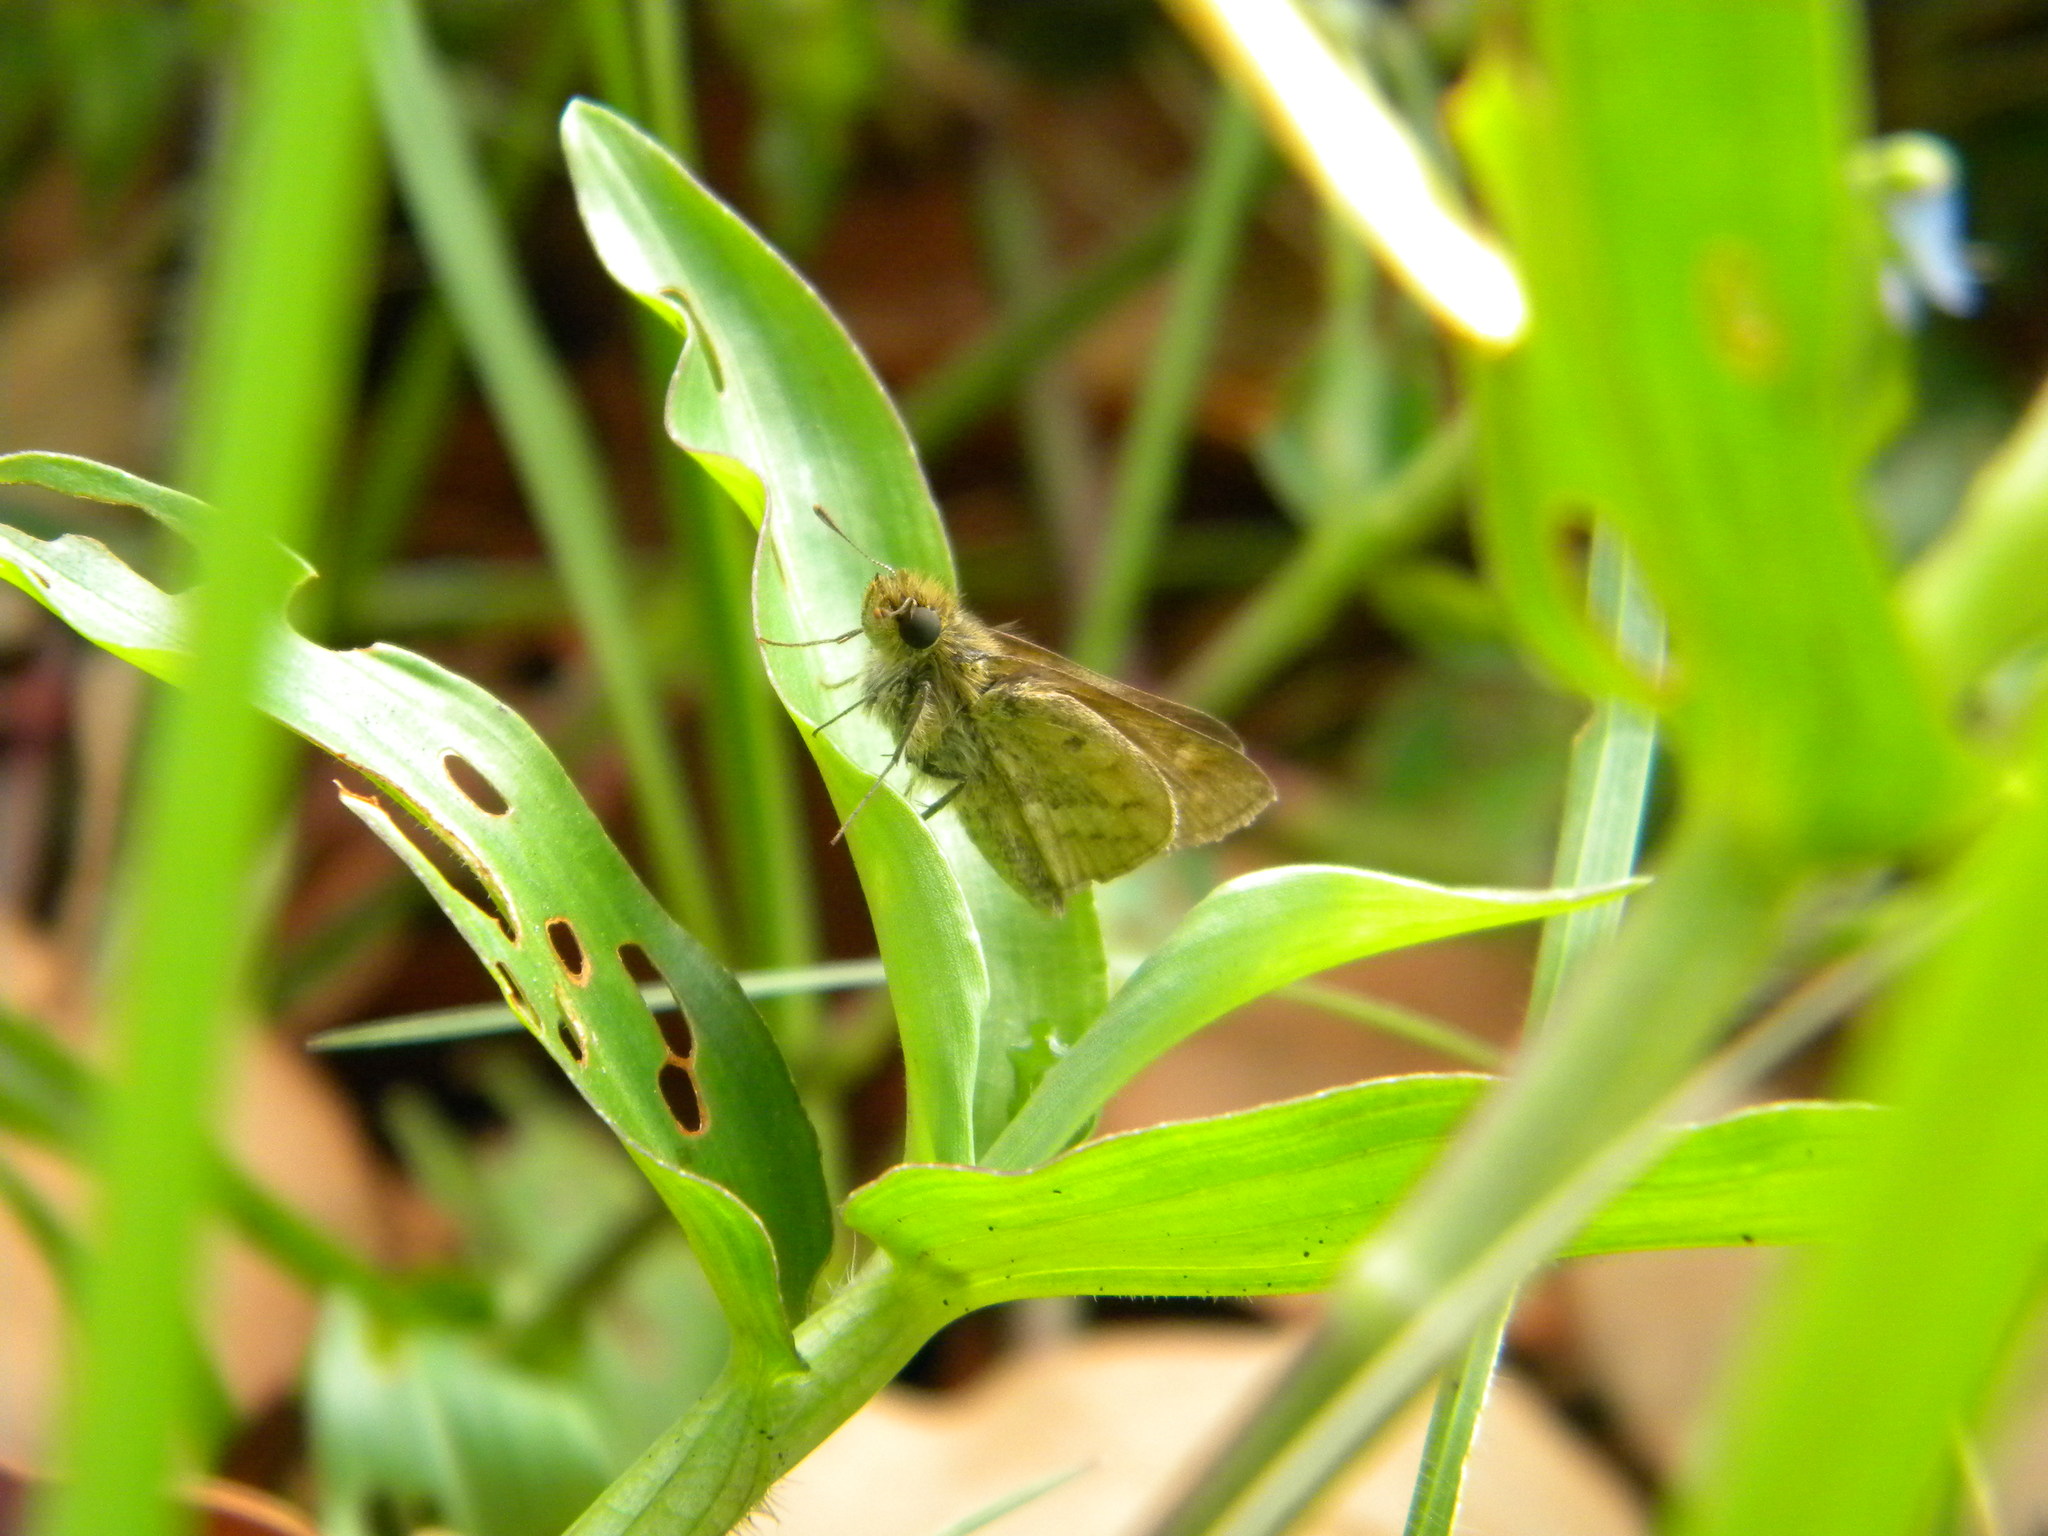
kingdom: Animalia
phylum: Arthropoda
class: Insecta
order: Hymenoptera
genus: Afrogenes
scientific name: Afrogenes
